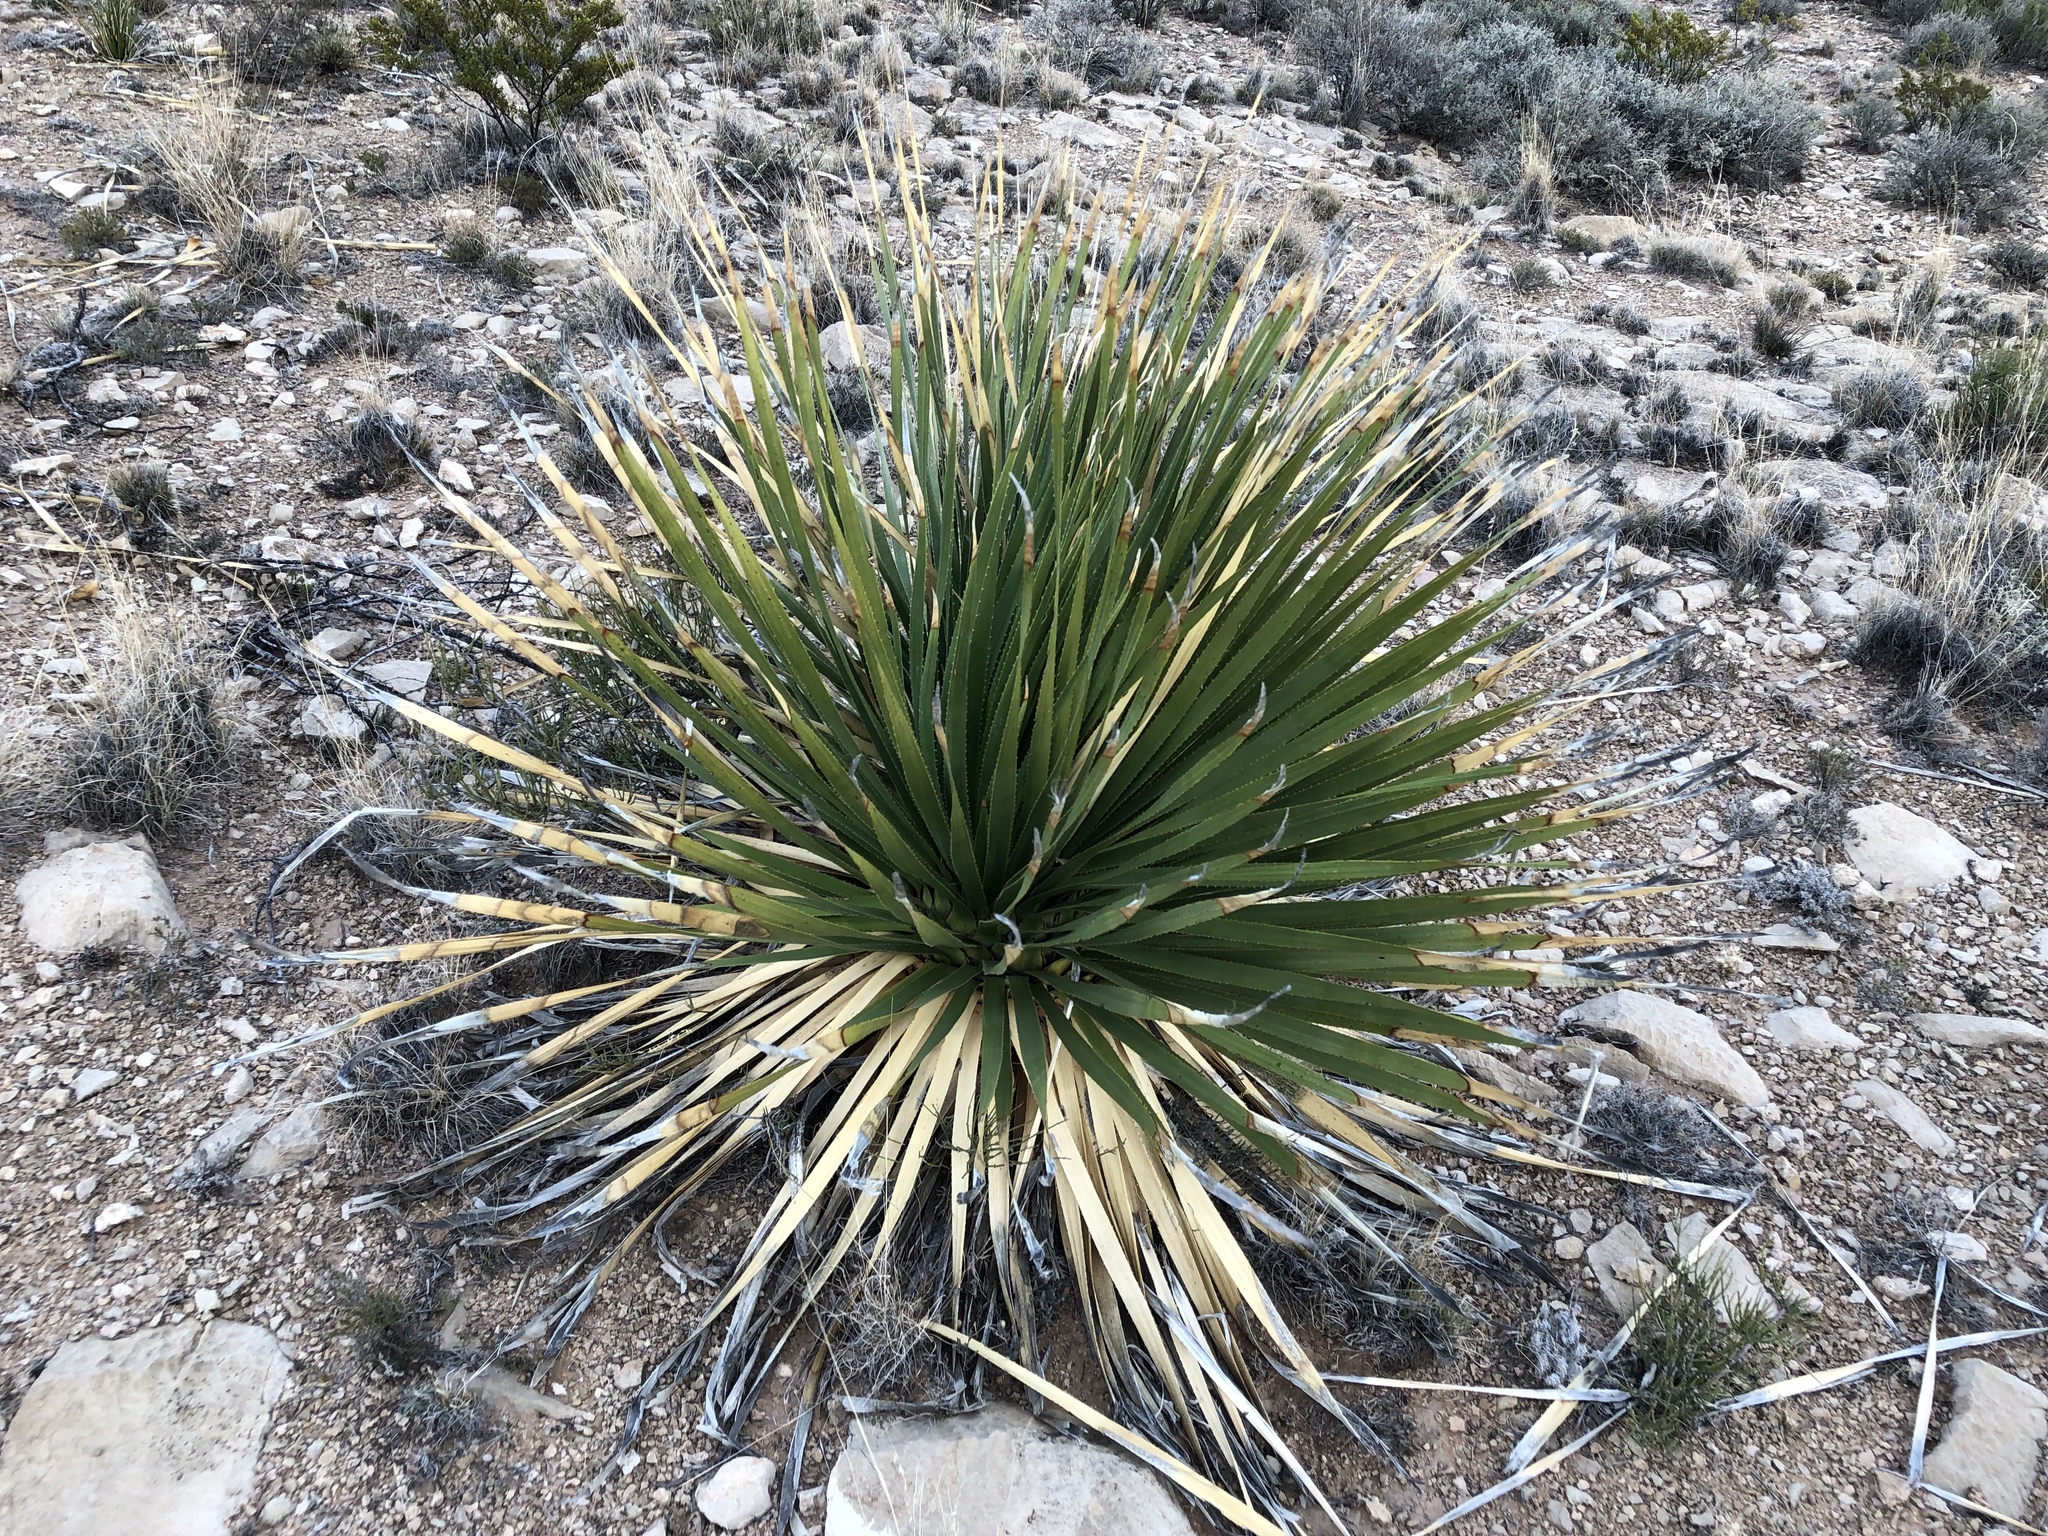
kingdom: Plantae
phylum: Tracheophyta
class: Liliopsida
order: Asparagales
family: Asparagaceae
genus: Dasylirion
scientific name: Dasylirion wheeleri
